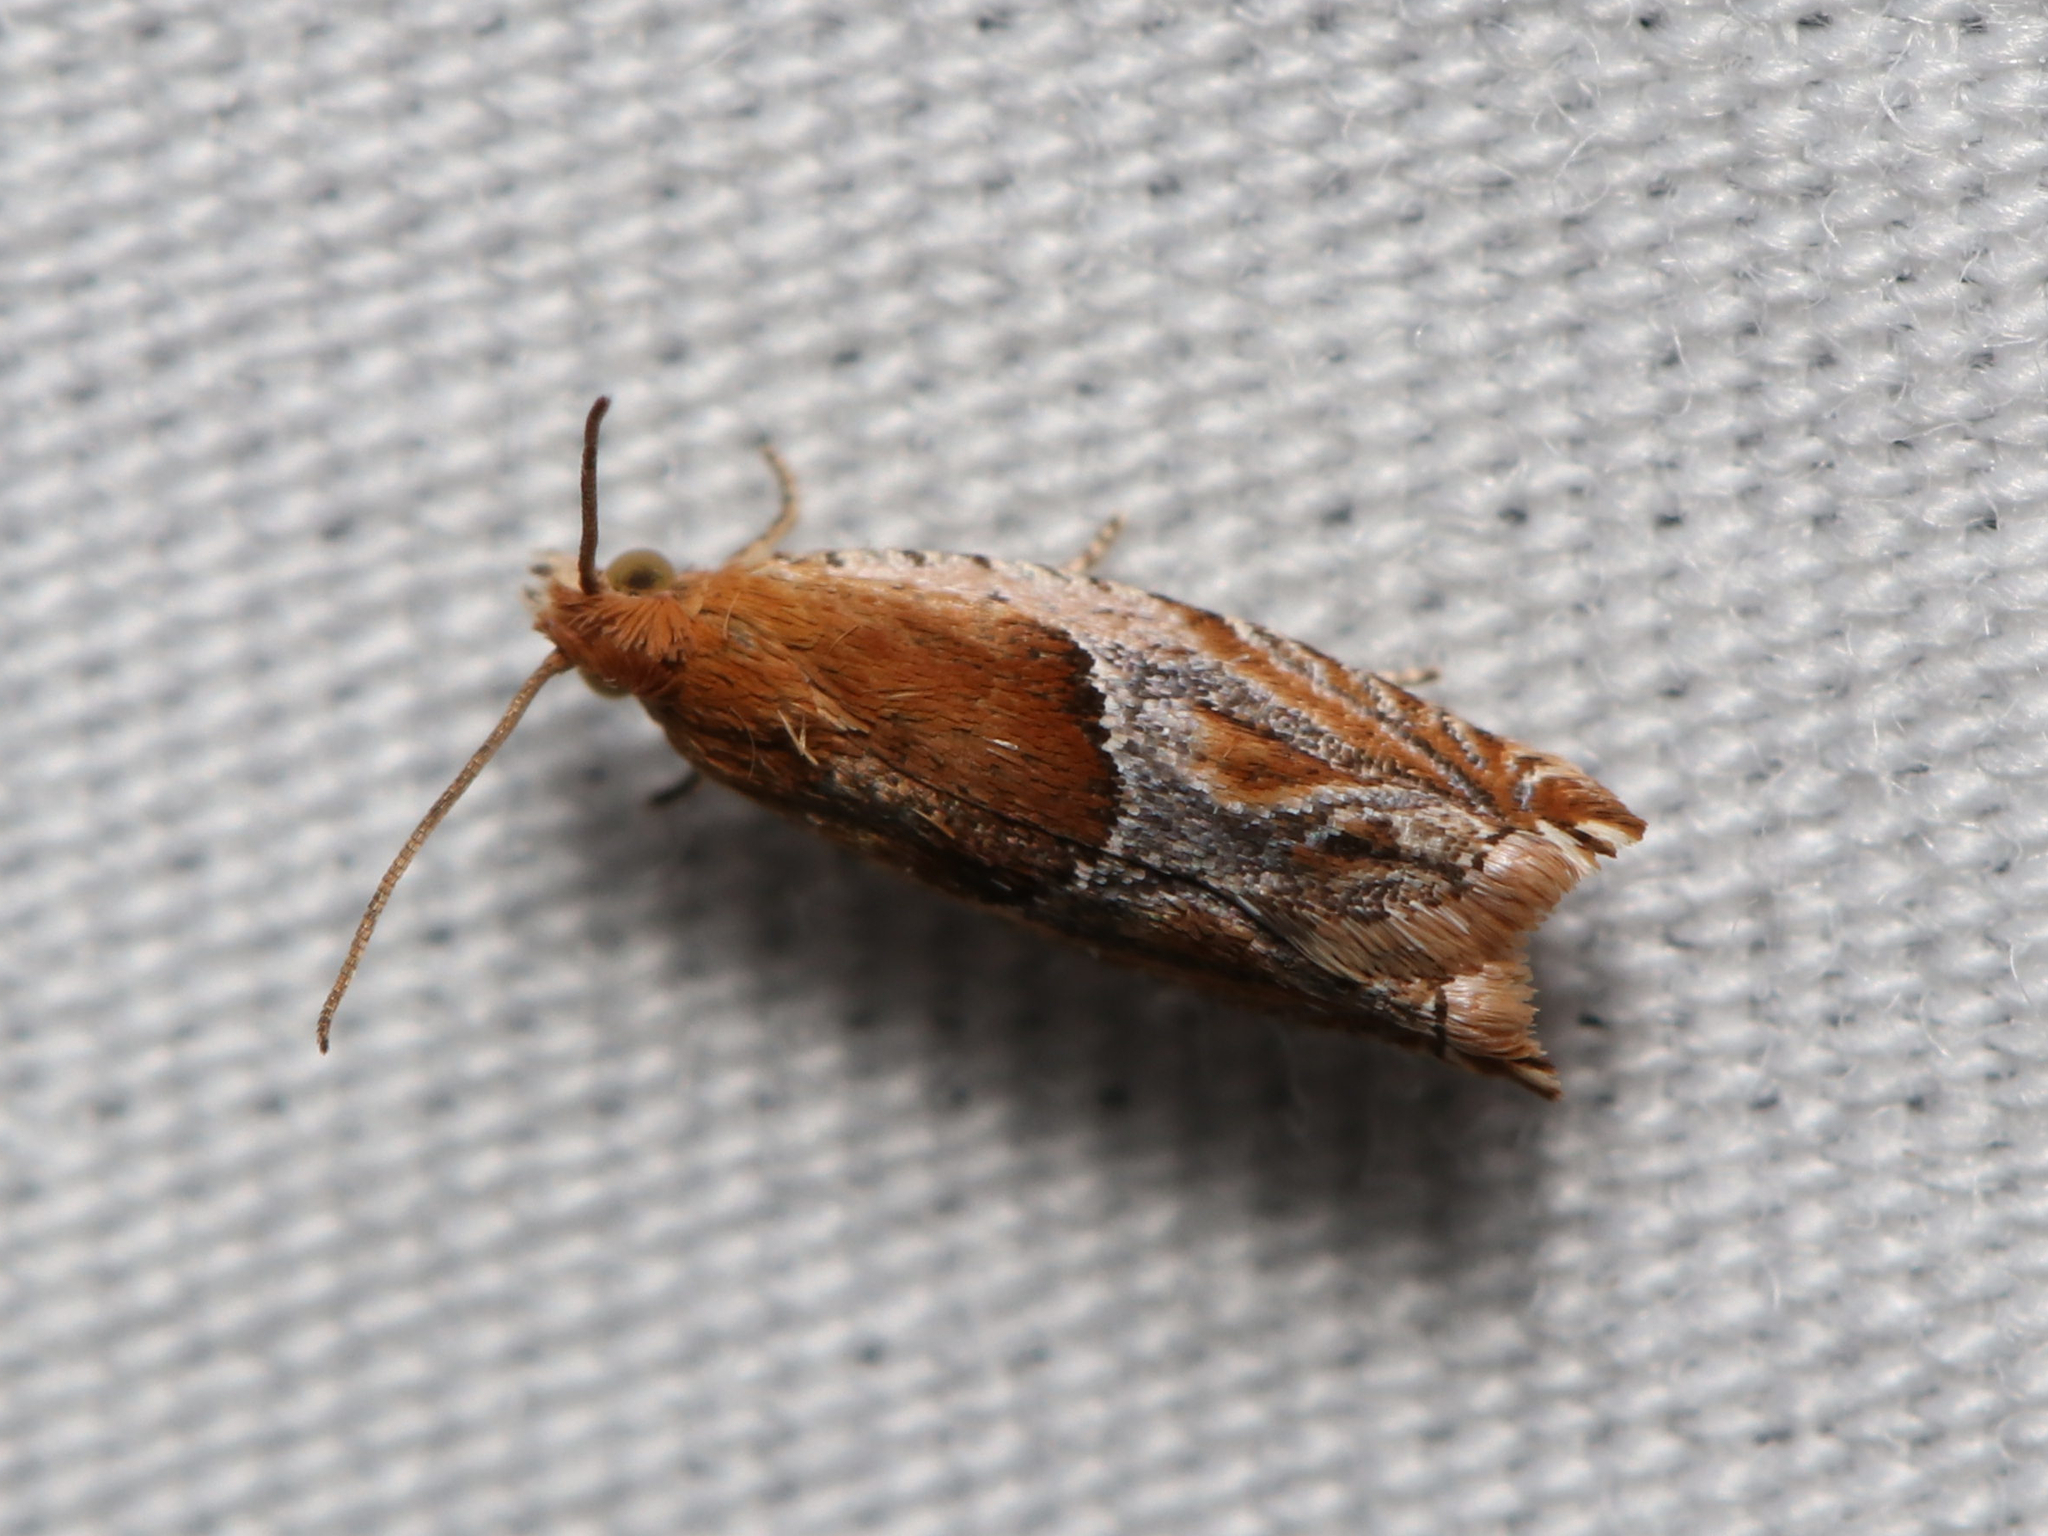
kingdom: Animalia
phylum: Arthropoda
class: Insecta
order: Lepidoptera
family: Tortricidae
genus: Ancylis
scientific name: Ancylis comptana
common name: Little roller
